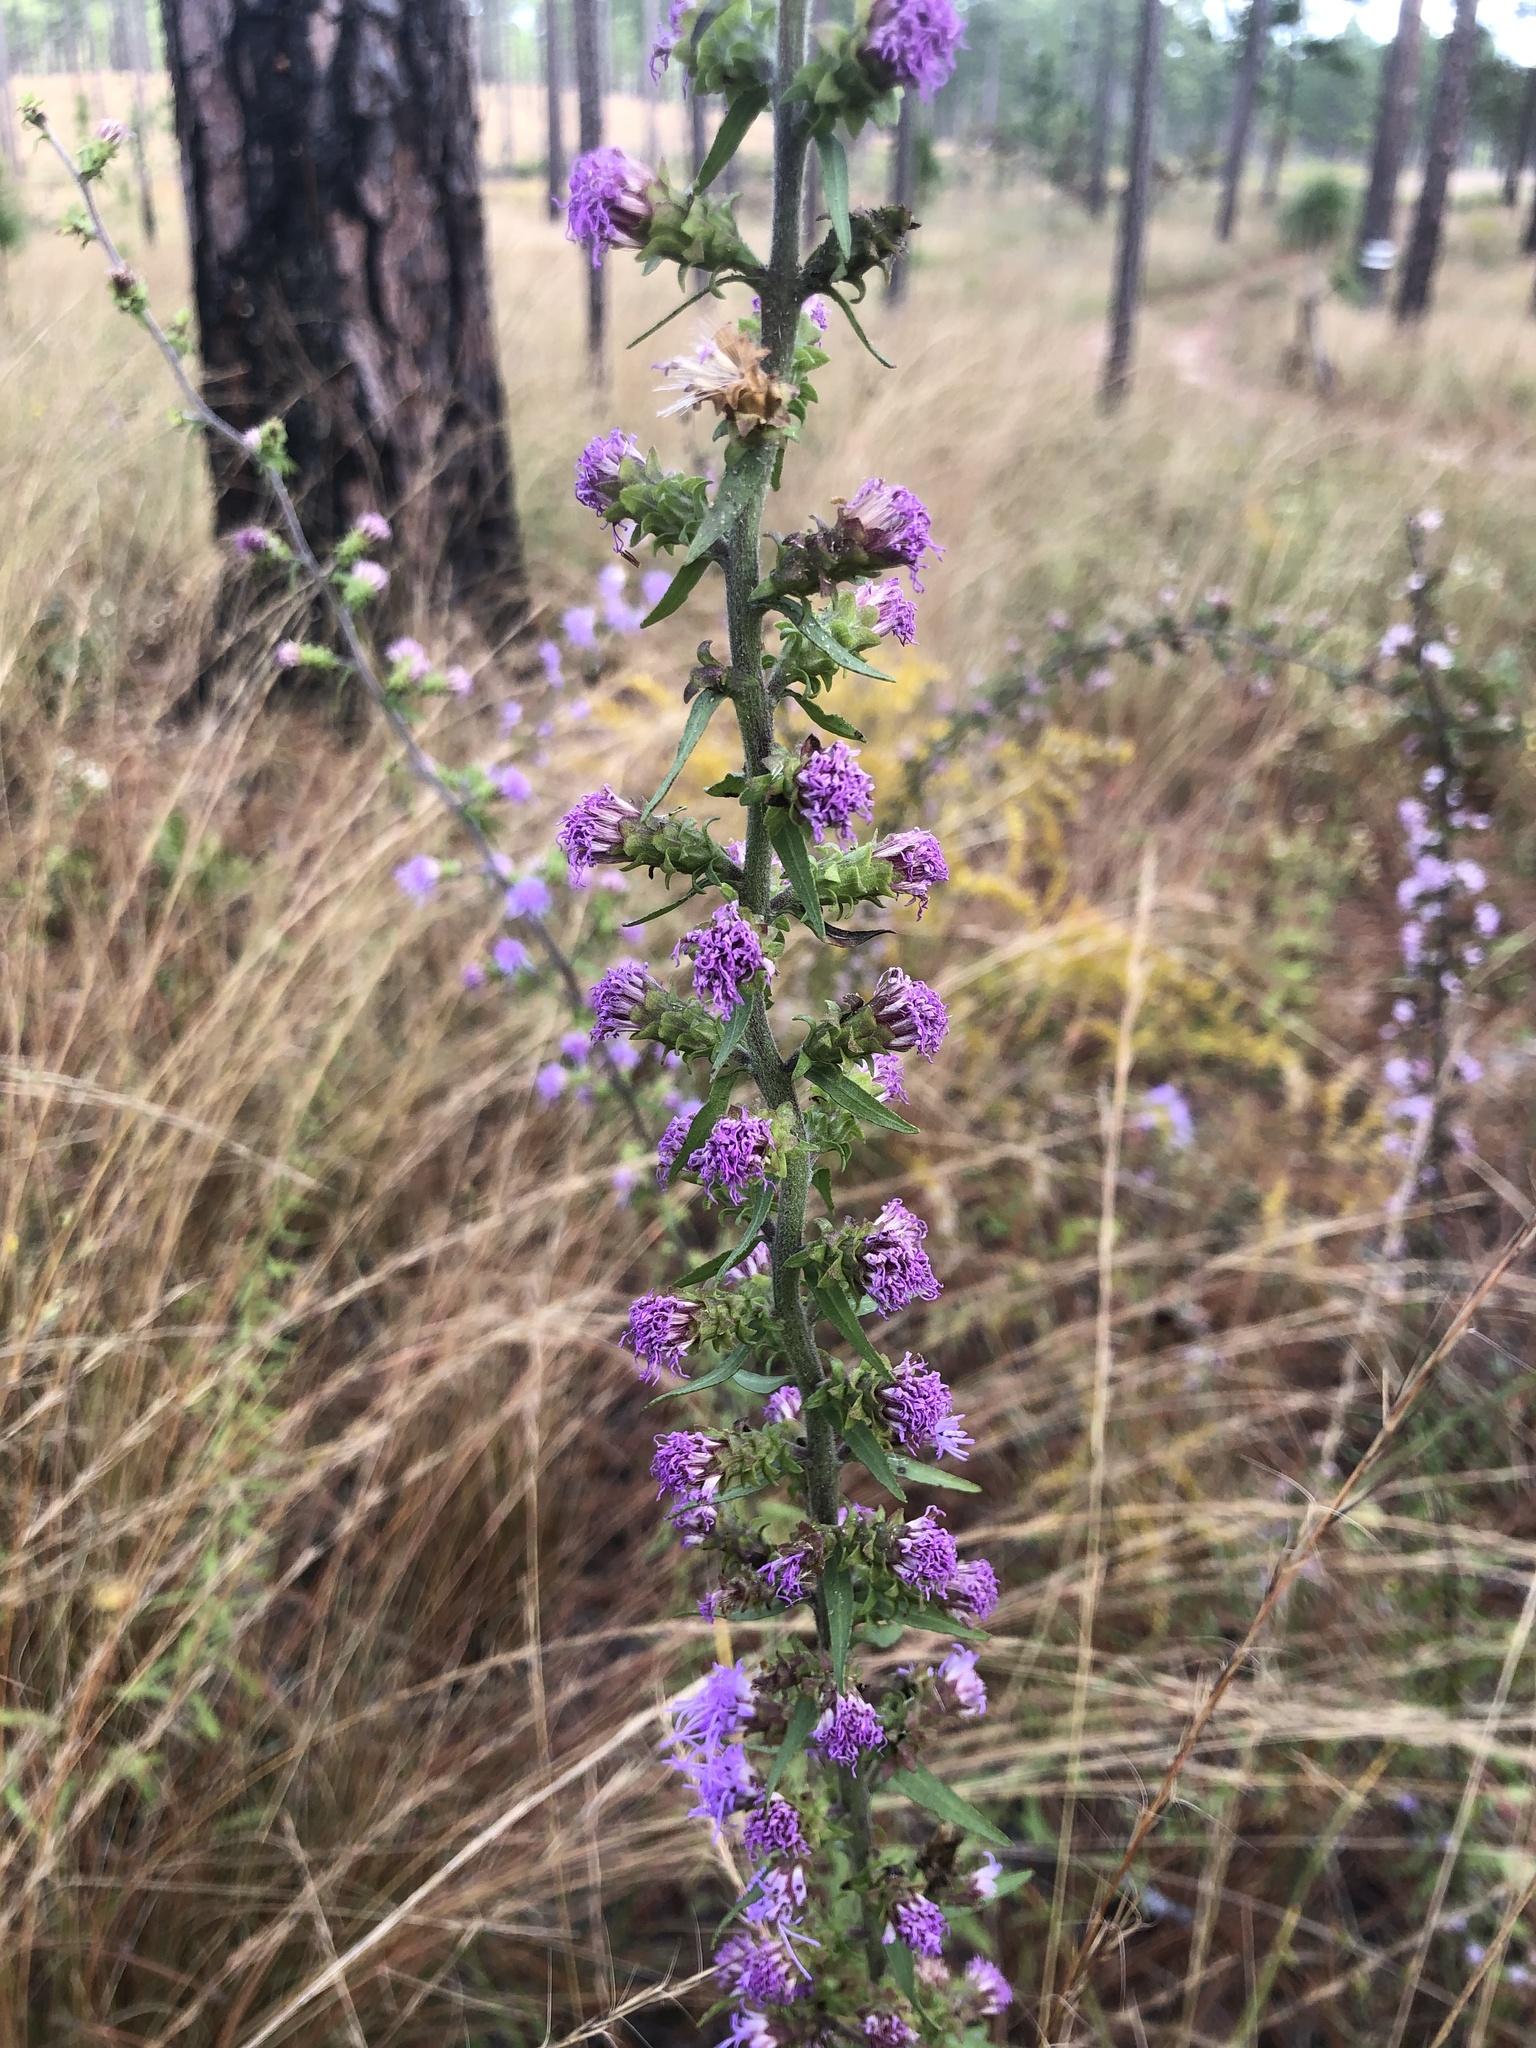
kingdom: Plantae
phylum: Tracheophyta
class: Magnoliopsida
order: Asterales
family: Asteraceae
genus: Liatris
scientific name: Liatris squarrulosa
